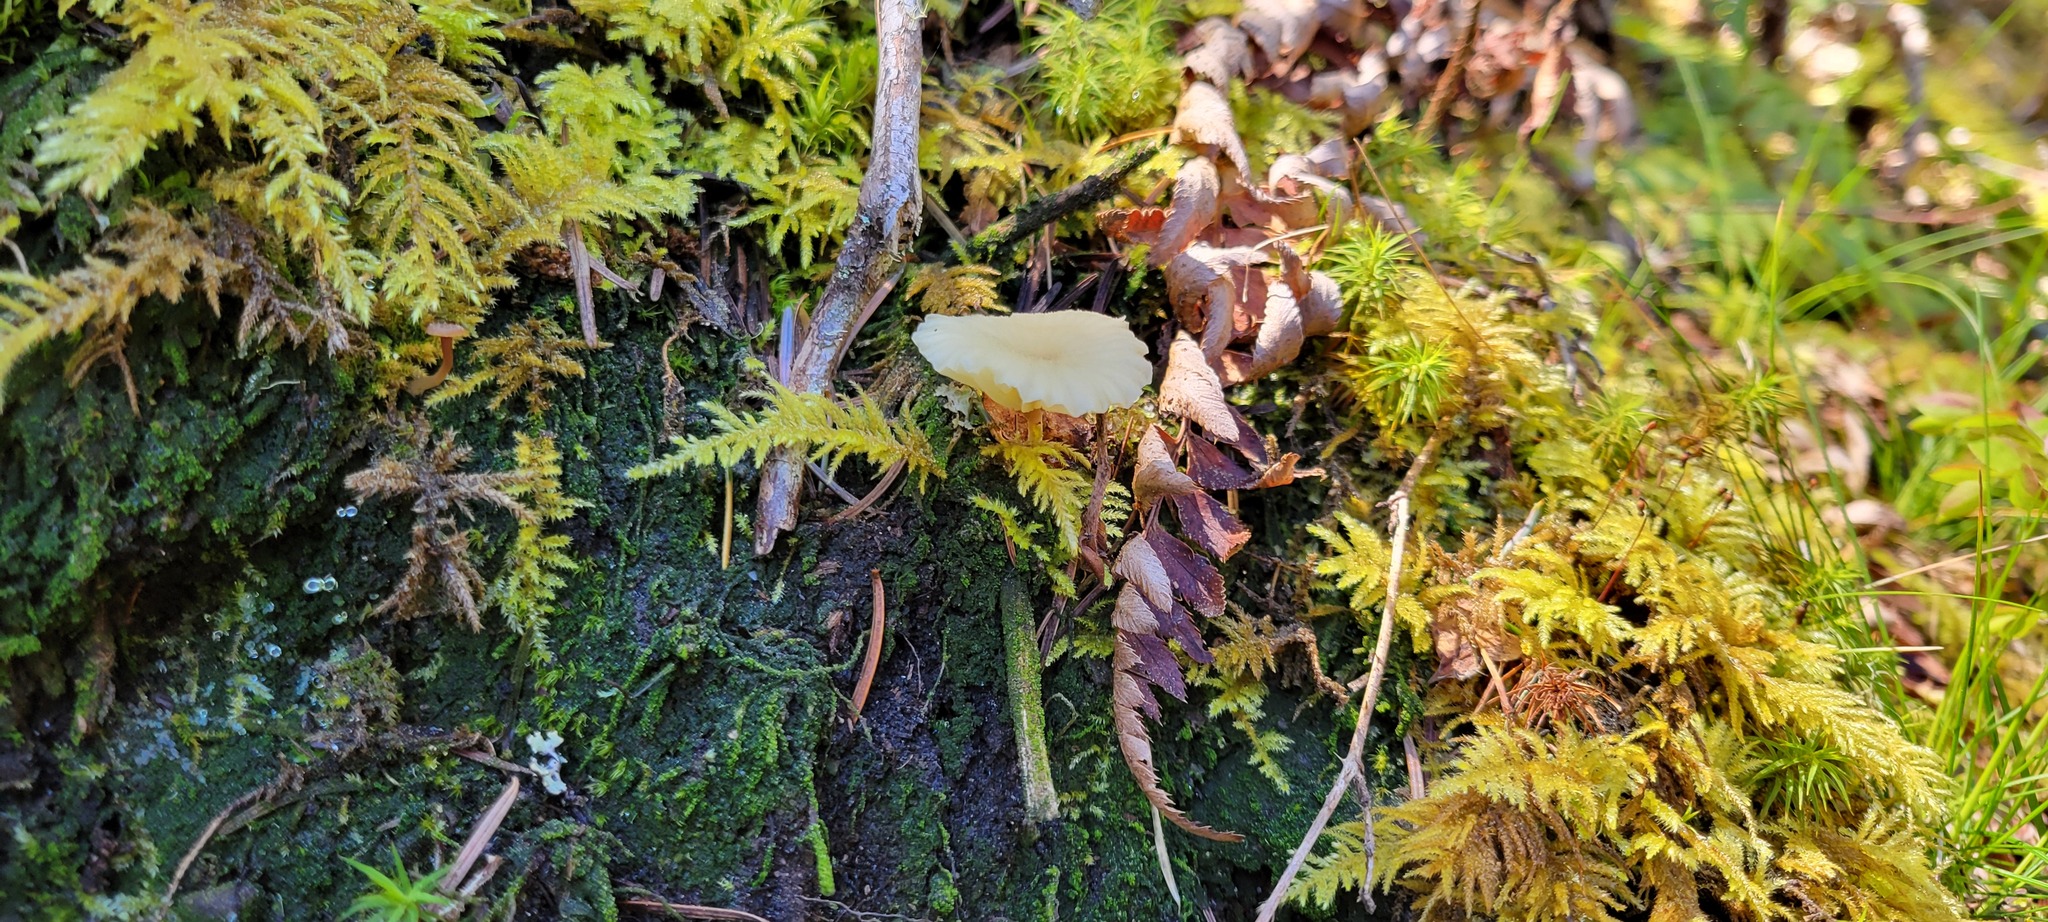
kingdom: Fungi
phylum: Basidiomycota
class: Agaricomycetes
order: Agaricales
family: Hygrophoraceae
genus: Lichenomphalia
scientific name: Lichenomphalia
